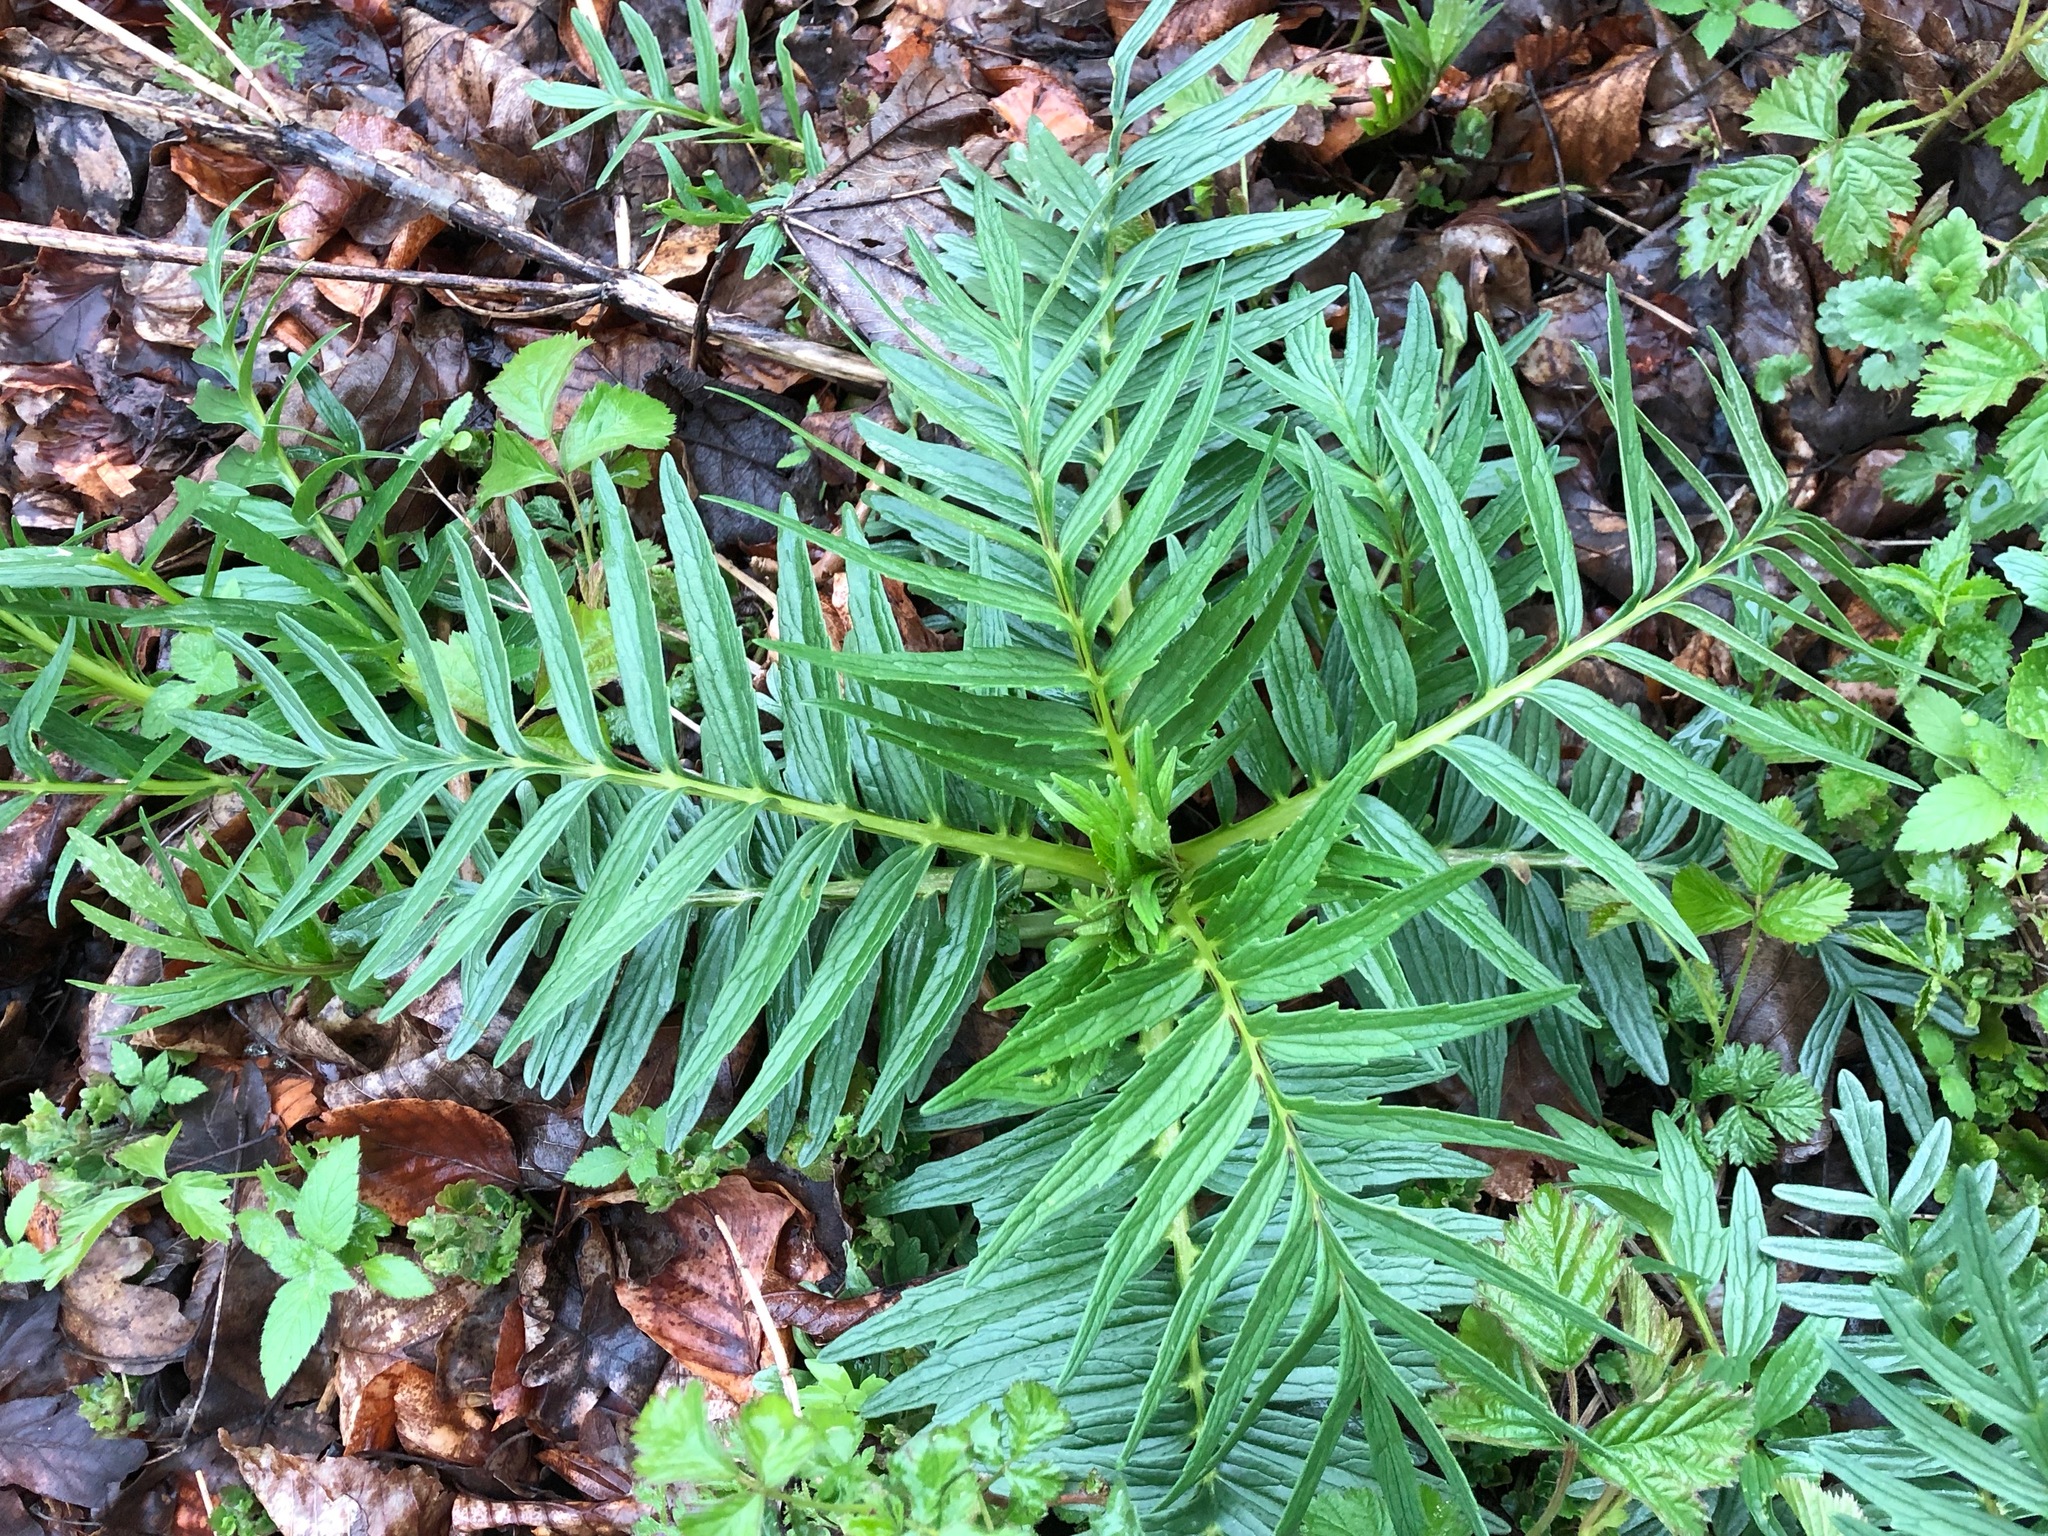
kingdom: Plantae
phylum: Tracheophyta
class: Magnoliopsida
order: Dipsacales
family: Caprifoliaceae
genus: Valeriana
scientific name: Valeriana officinalis
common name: Common valerian
